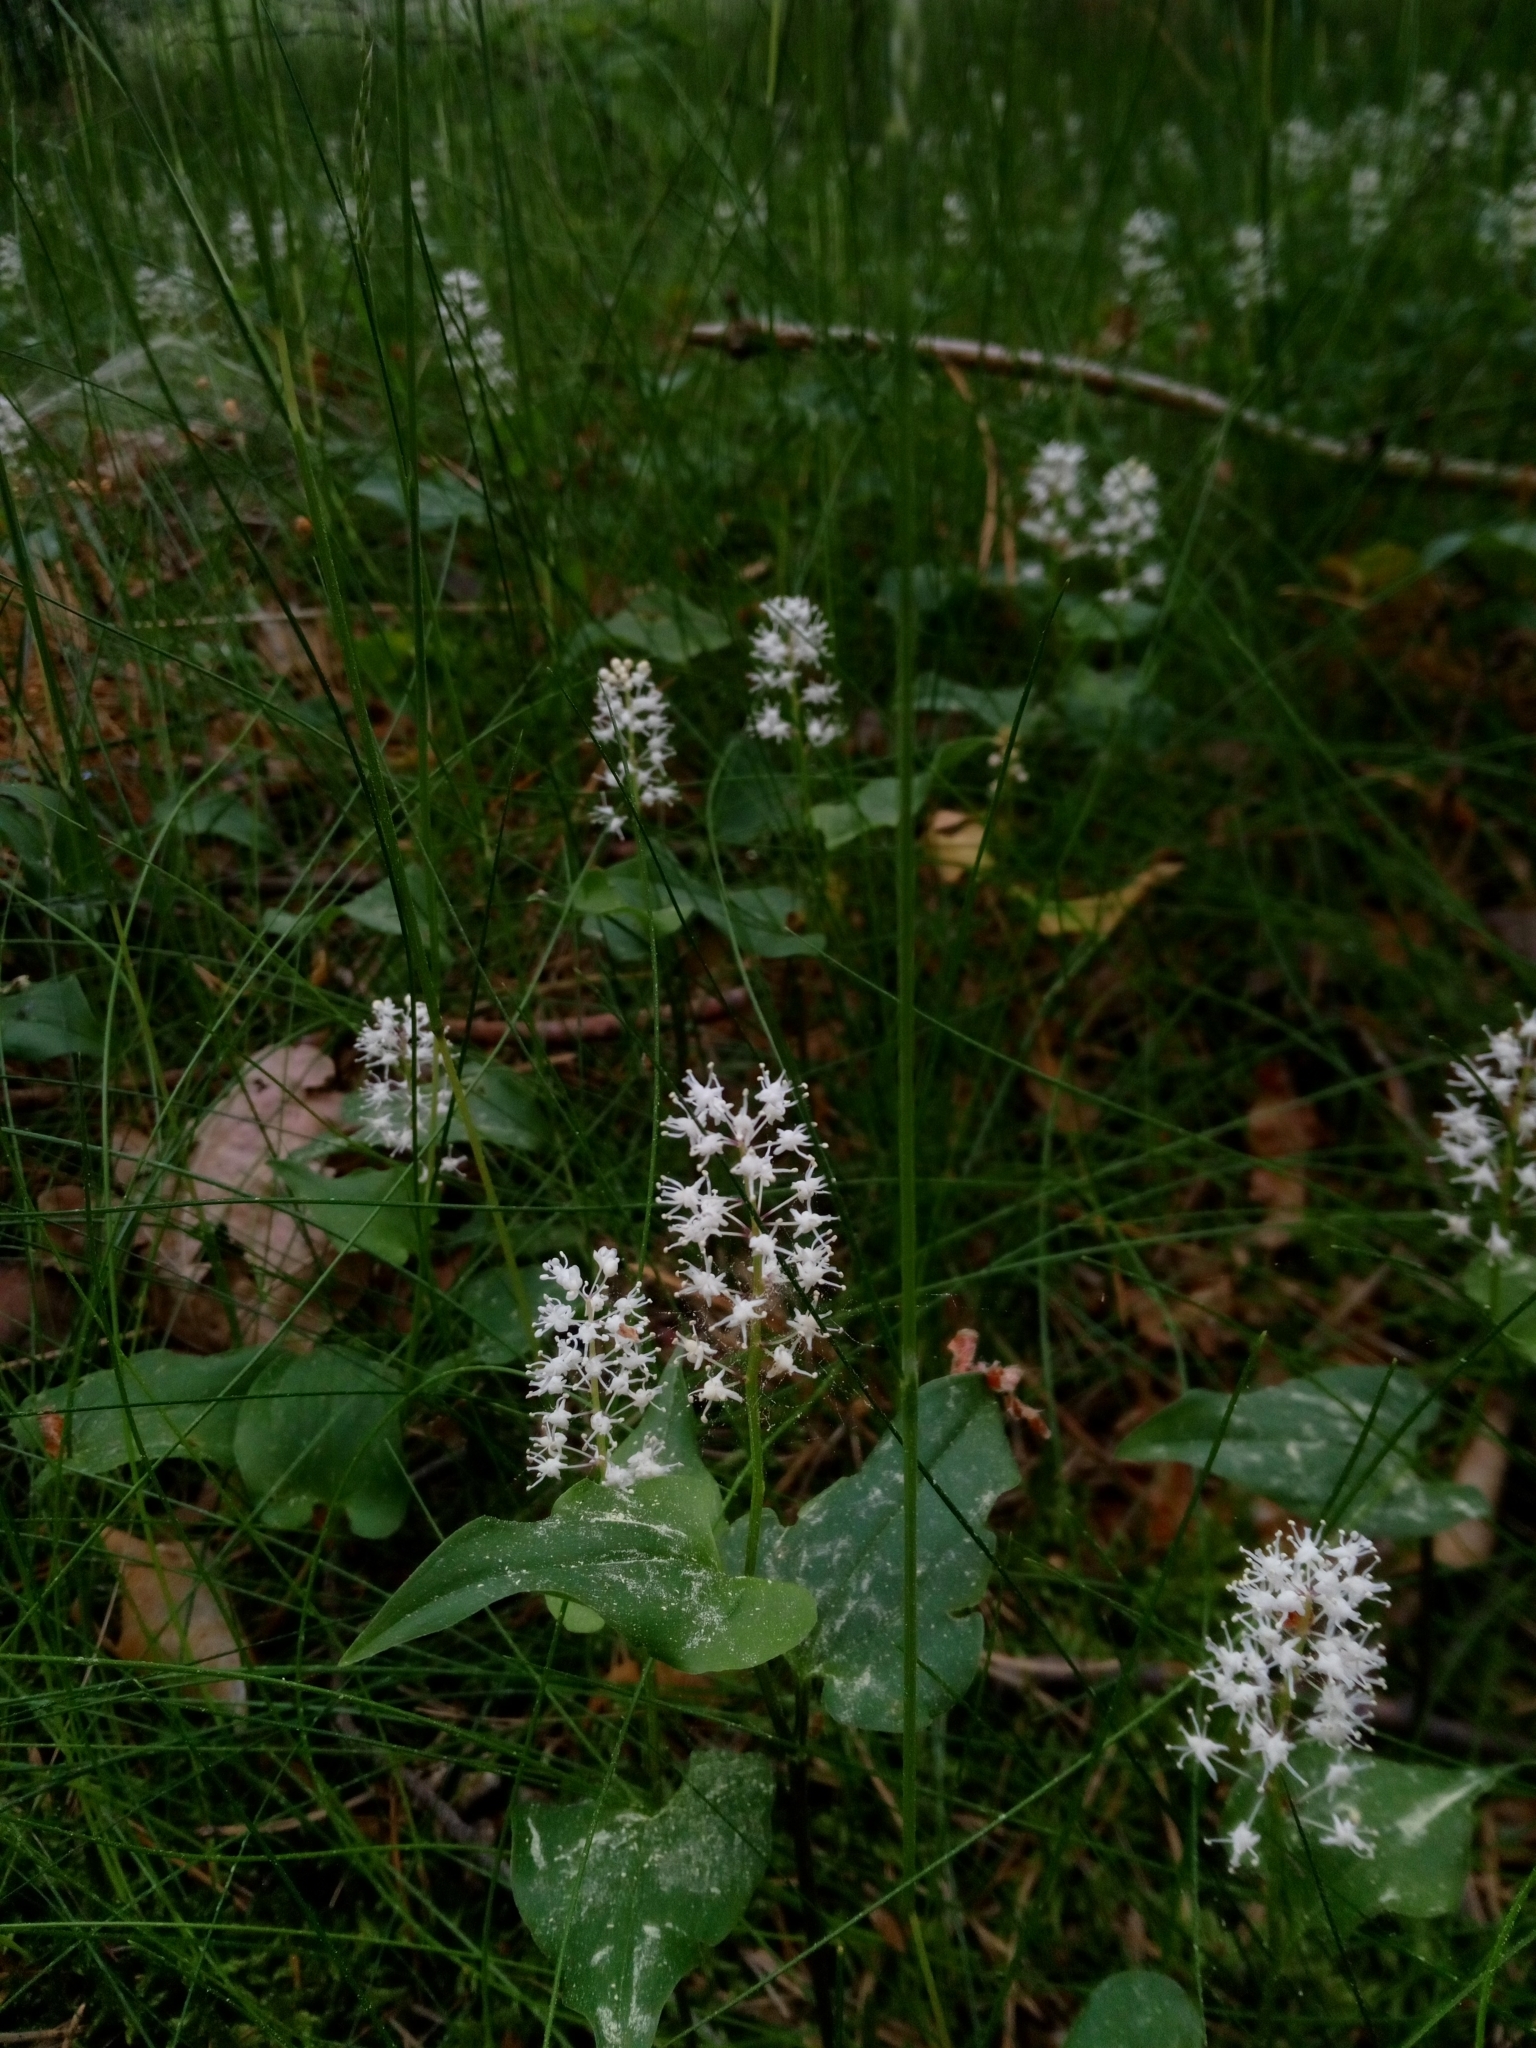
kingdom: Plantae
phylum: Tracheophyta
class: Liliopsida
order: Asparagales
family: Asparagaceae
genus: Maianthemum
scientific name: Maianthemum bifolium
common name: May lily
